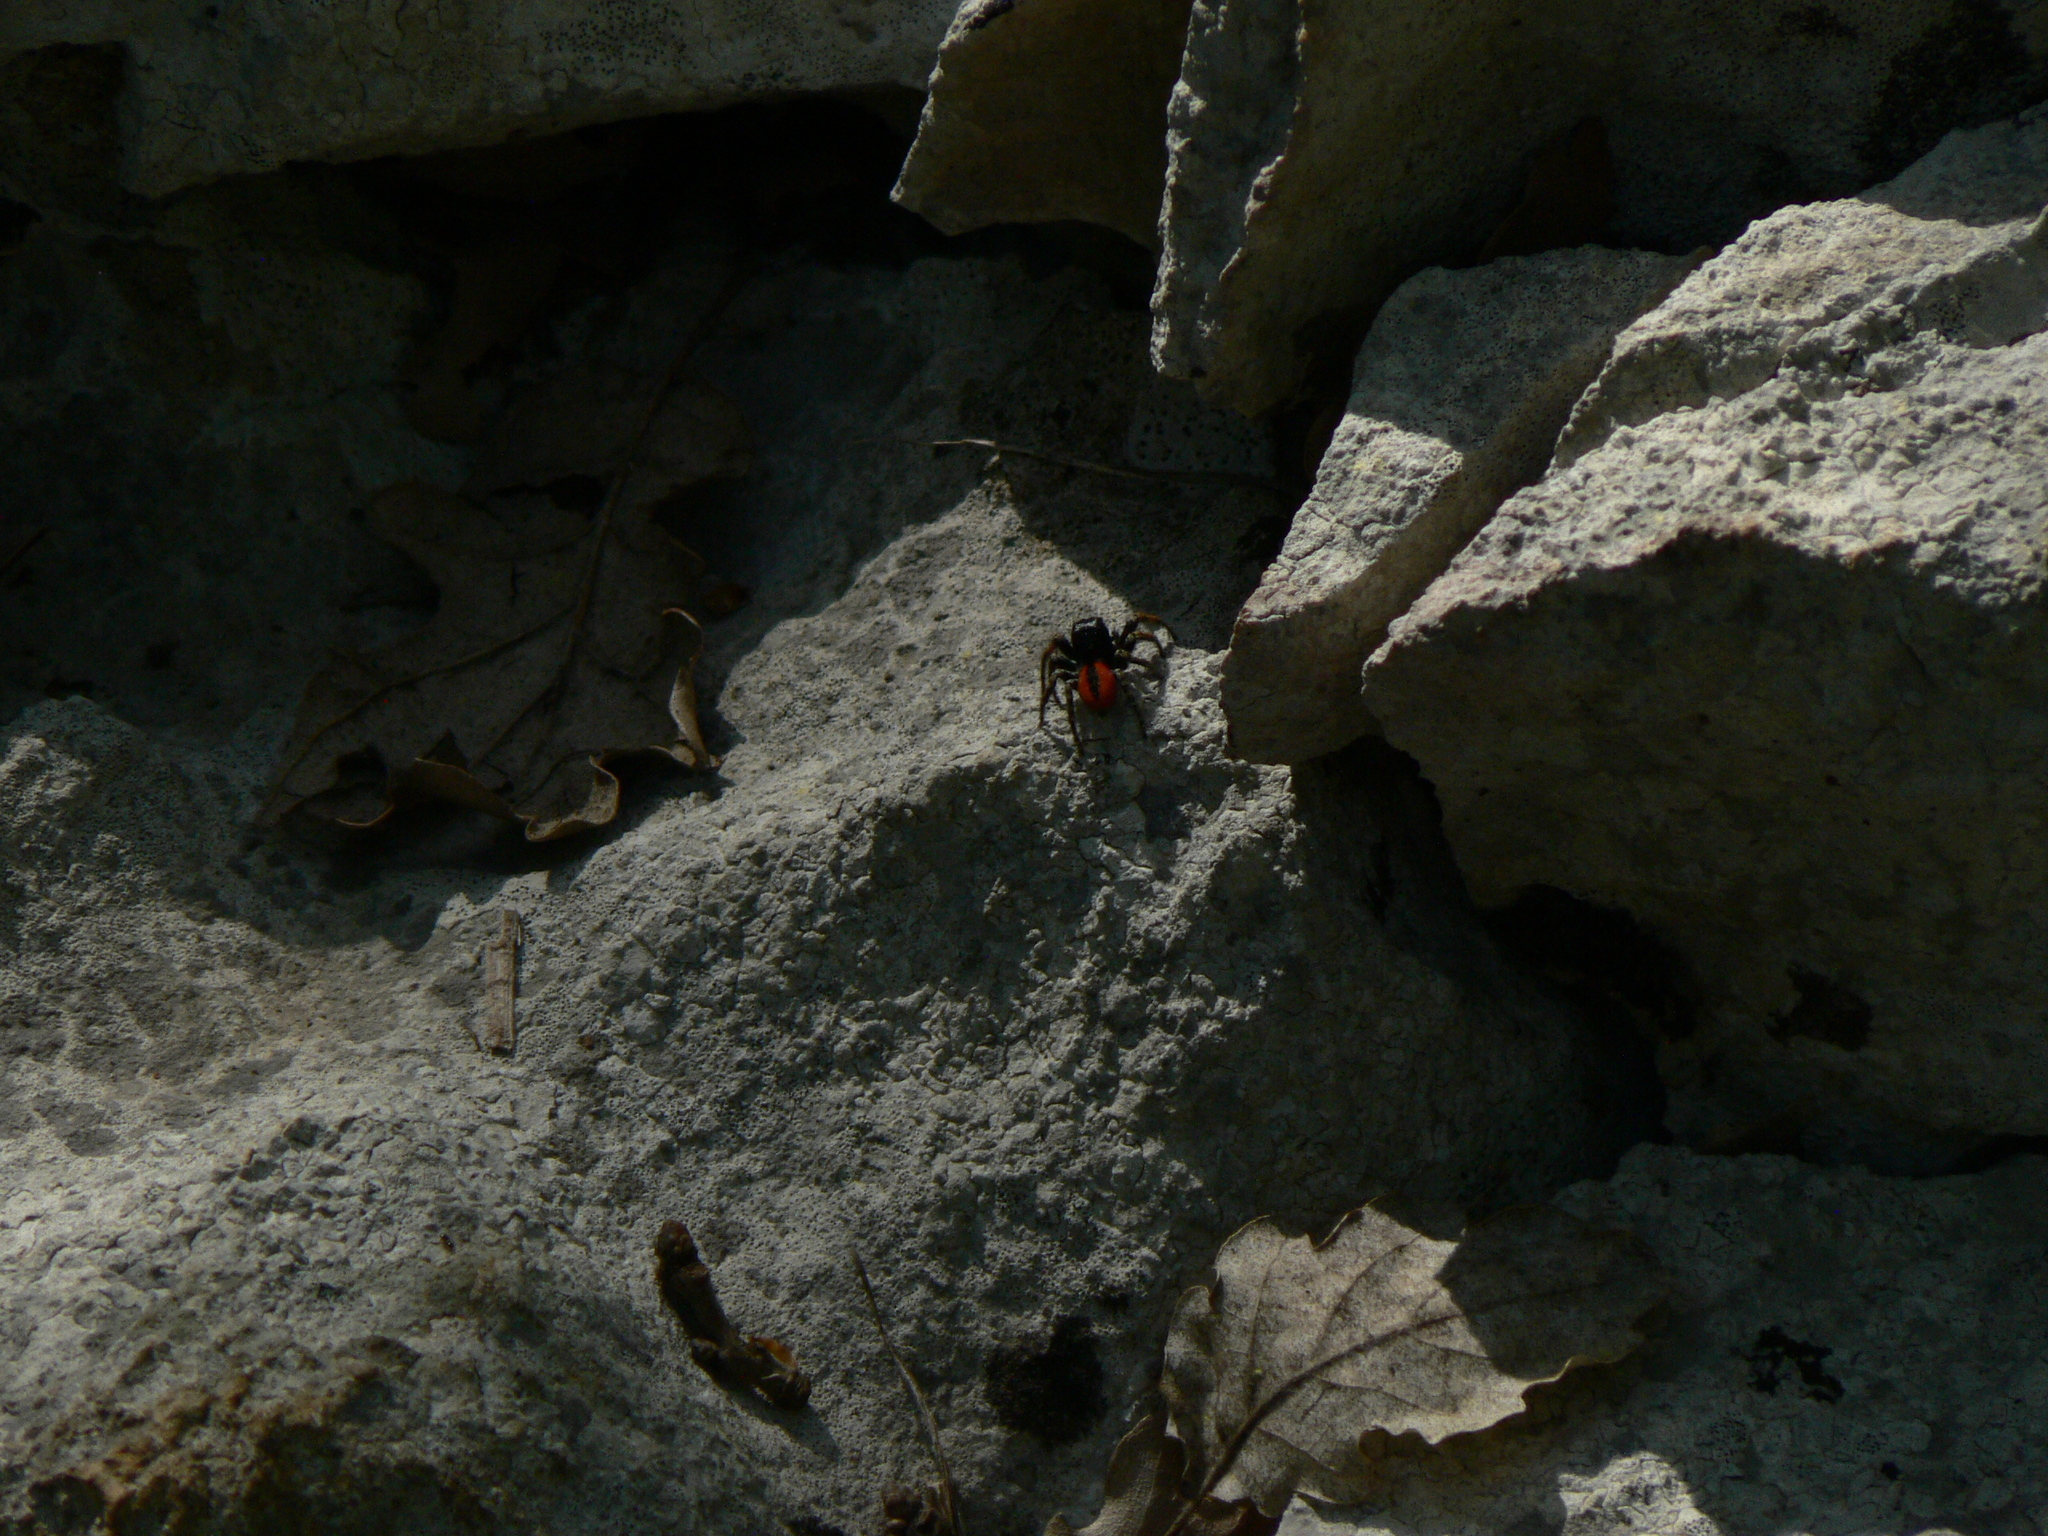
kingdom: Animalia
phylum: Arthropoda
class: Arachnida
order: Araneae
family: Salticidae
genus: Philaeus
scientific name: Philaeus chrysops
